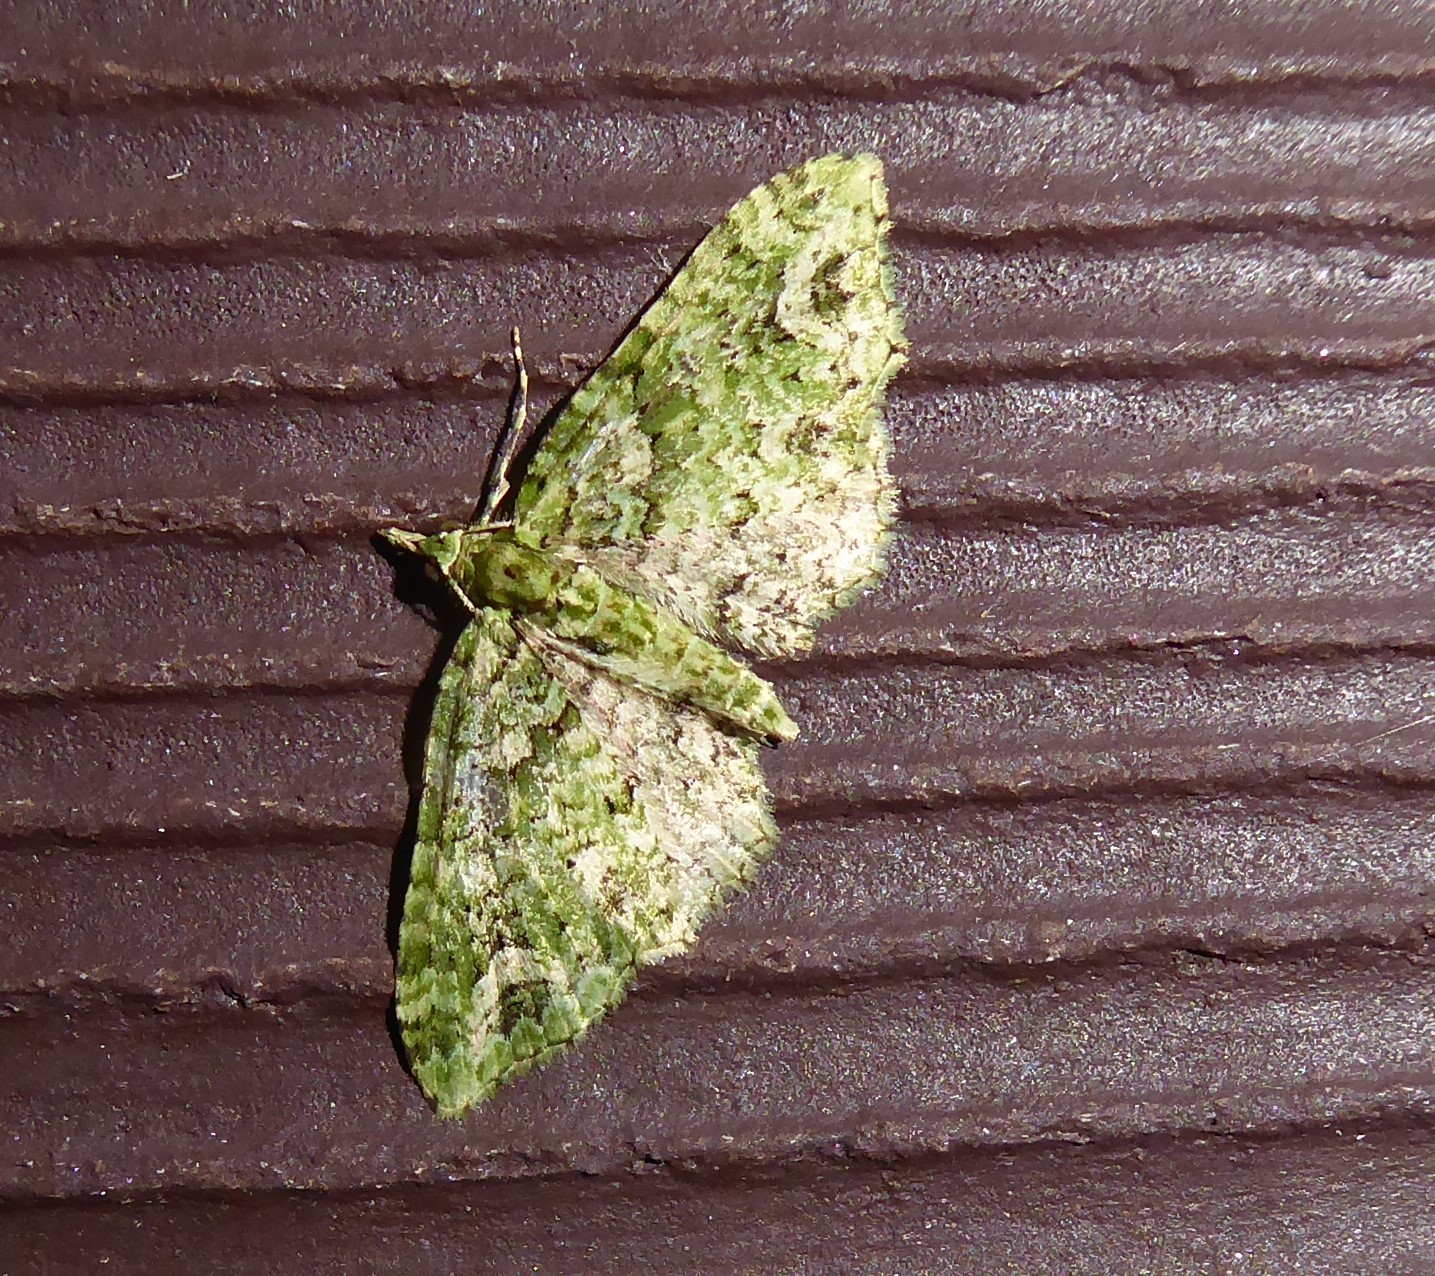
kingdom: Animalia
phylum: Arthropoda
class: Insecta
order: Lepidoptera
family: Geometridae
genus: Pasiphila
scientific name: Pasiphila muscosata
